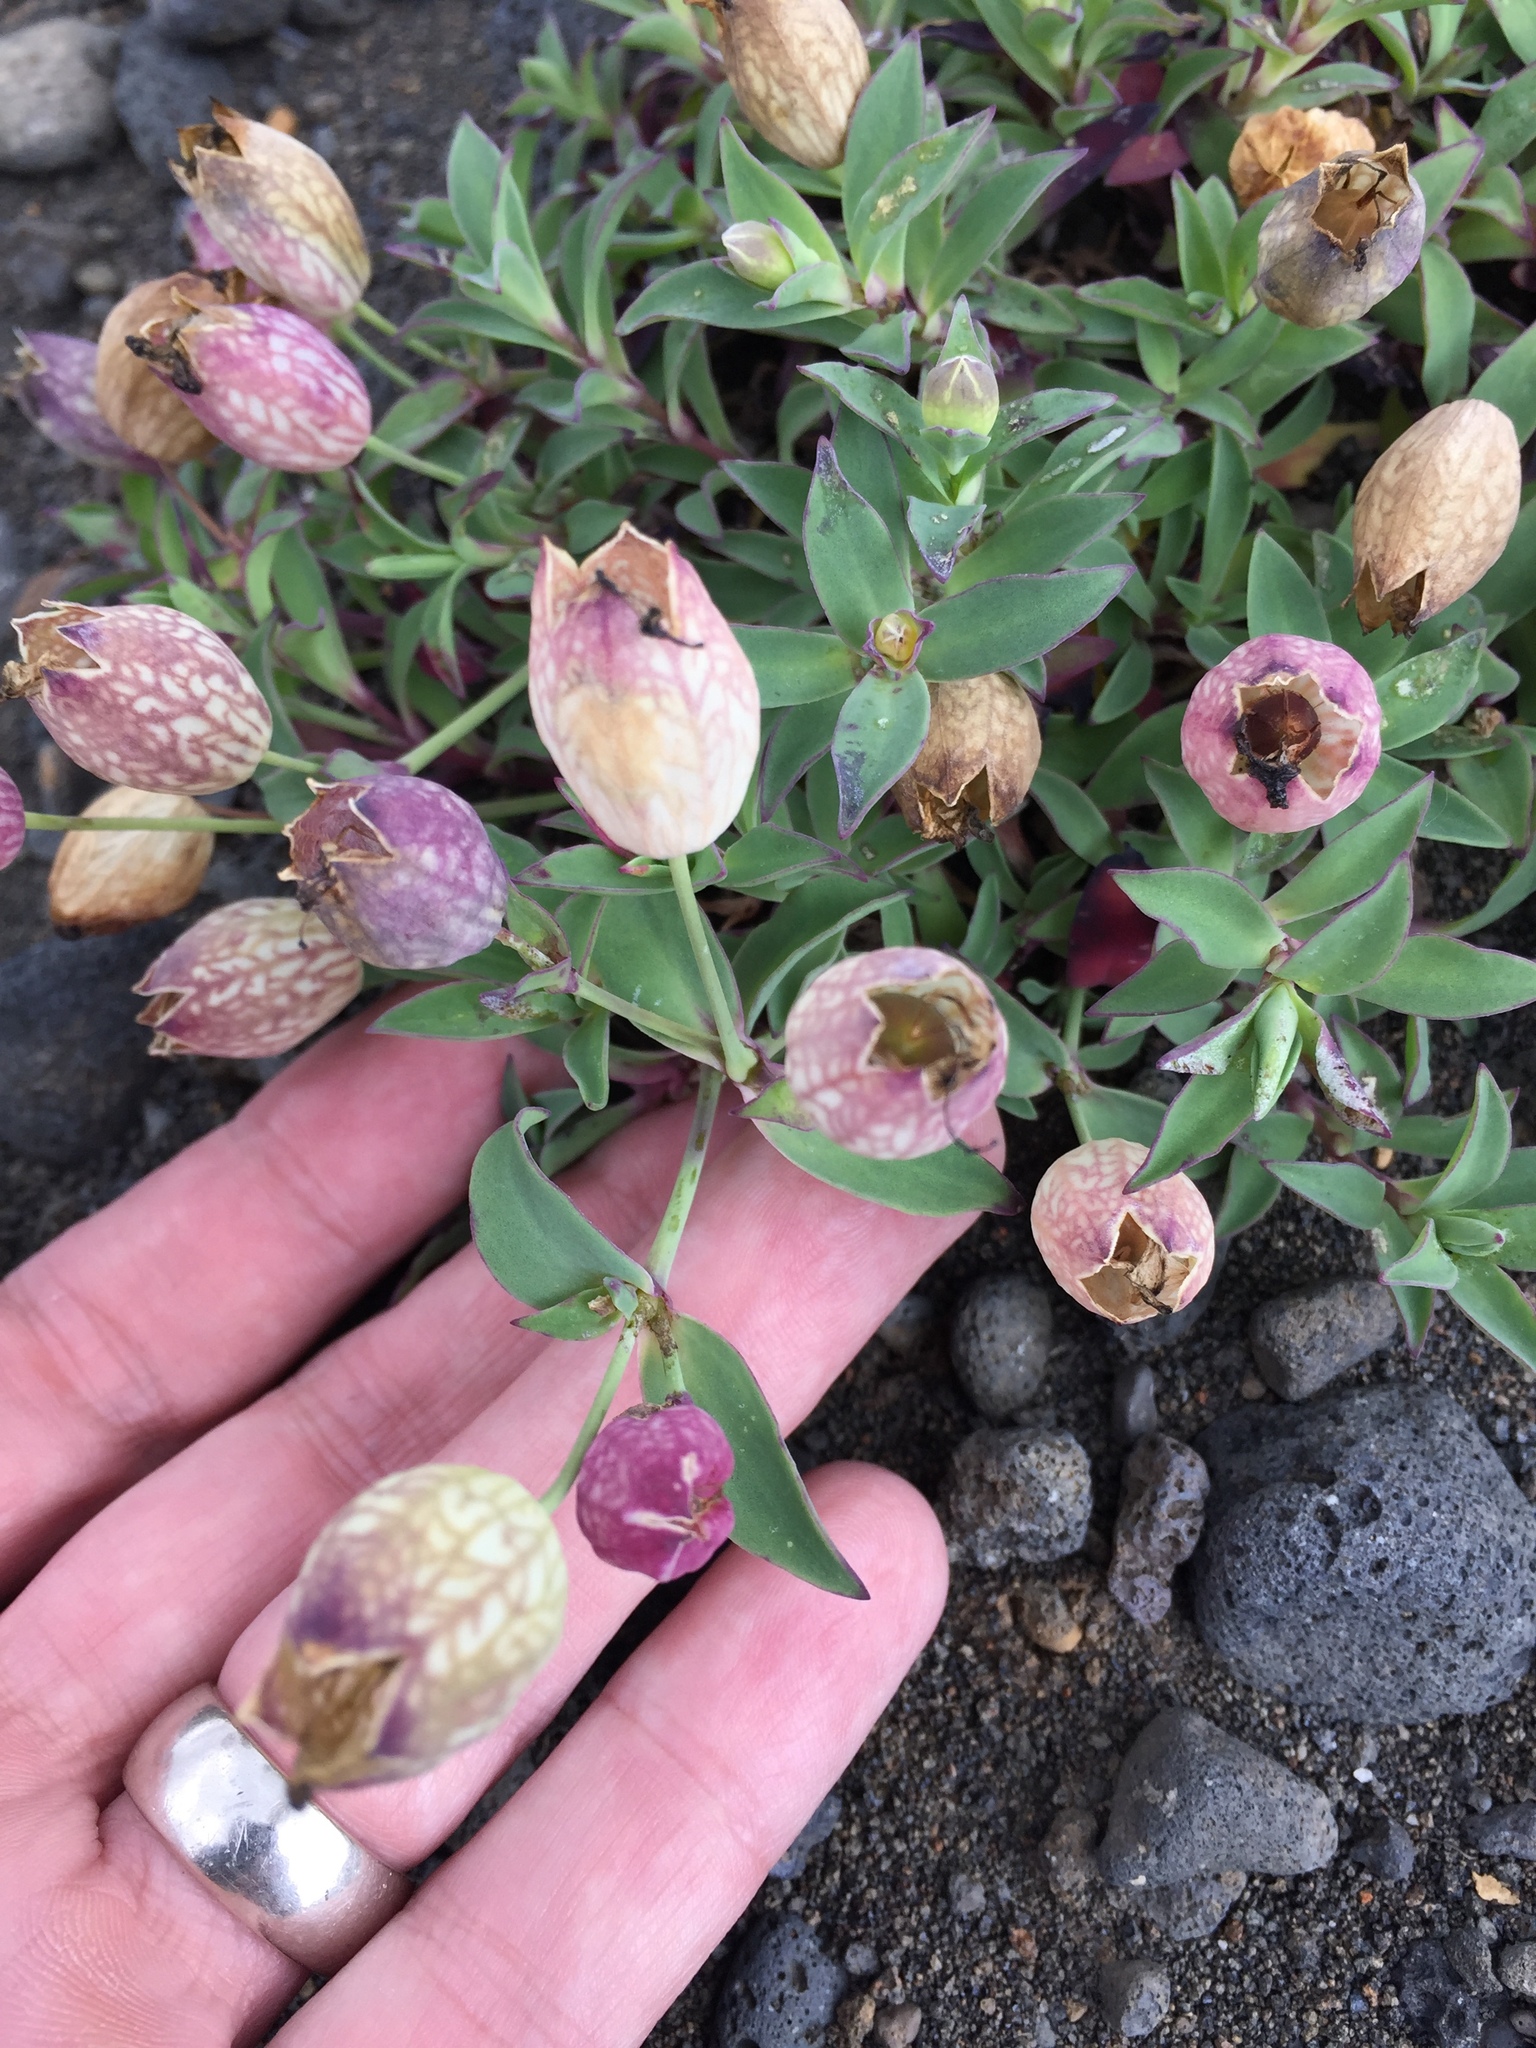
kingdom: Plantae
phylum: Tracheophyta
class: Magnoliopsida
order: Caryophyllales
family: Caryophyllaceae
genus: Silene
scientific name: Silene uniflora
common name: Sea campion
